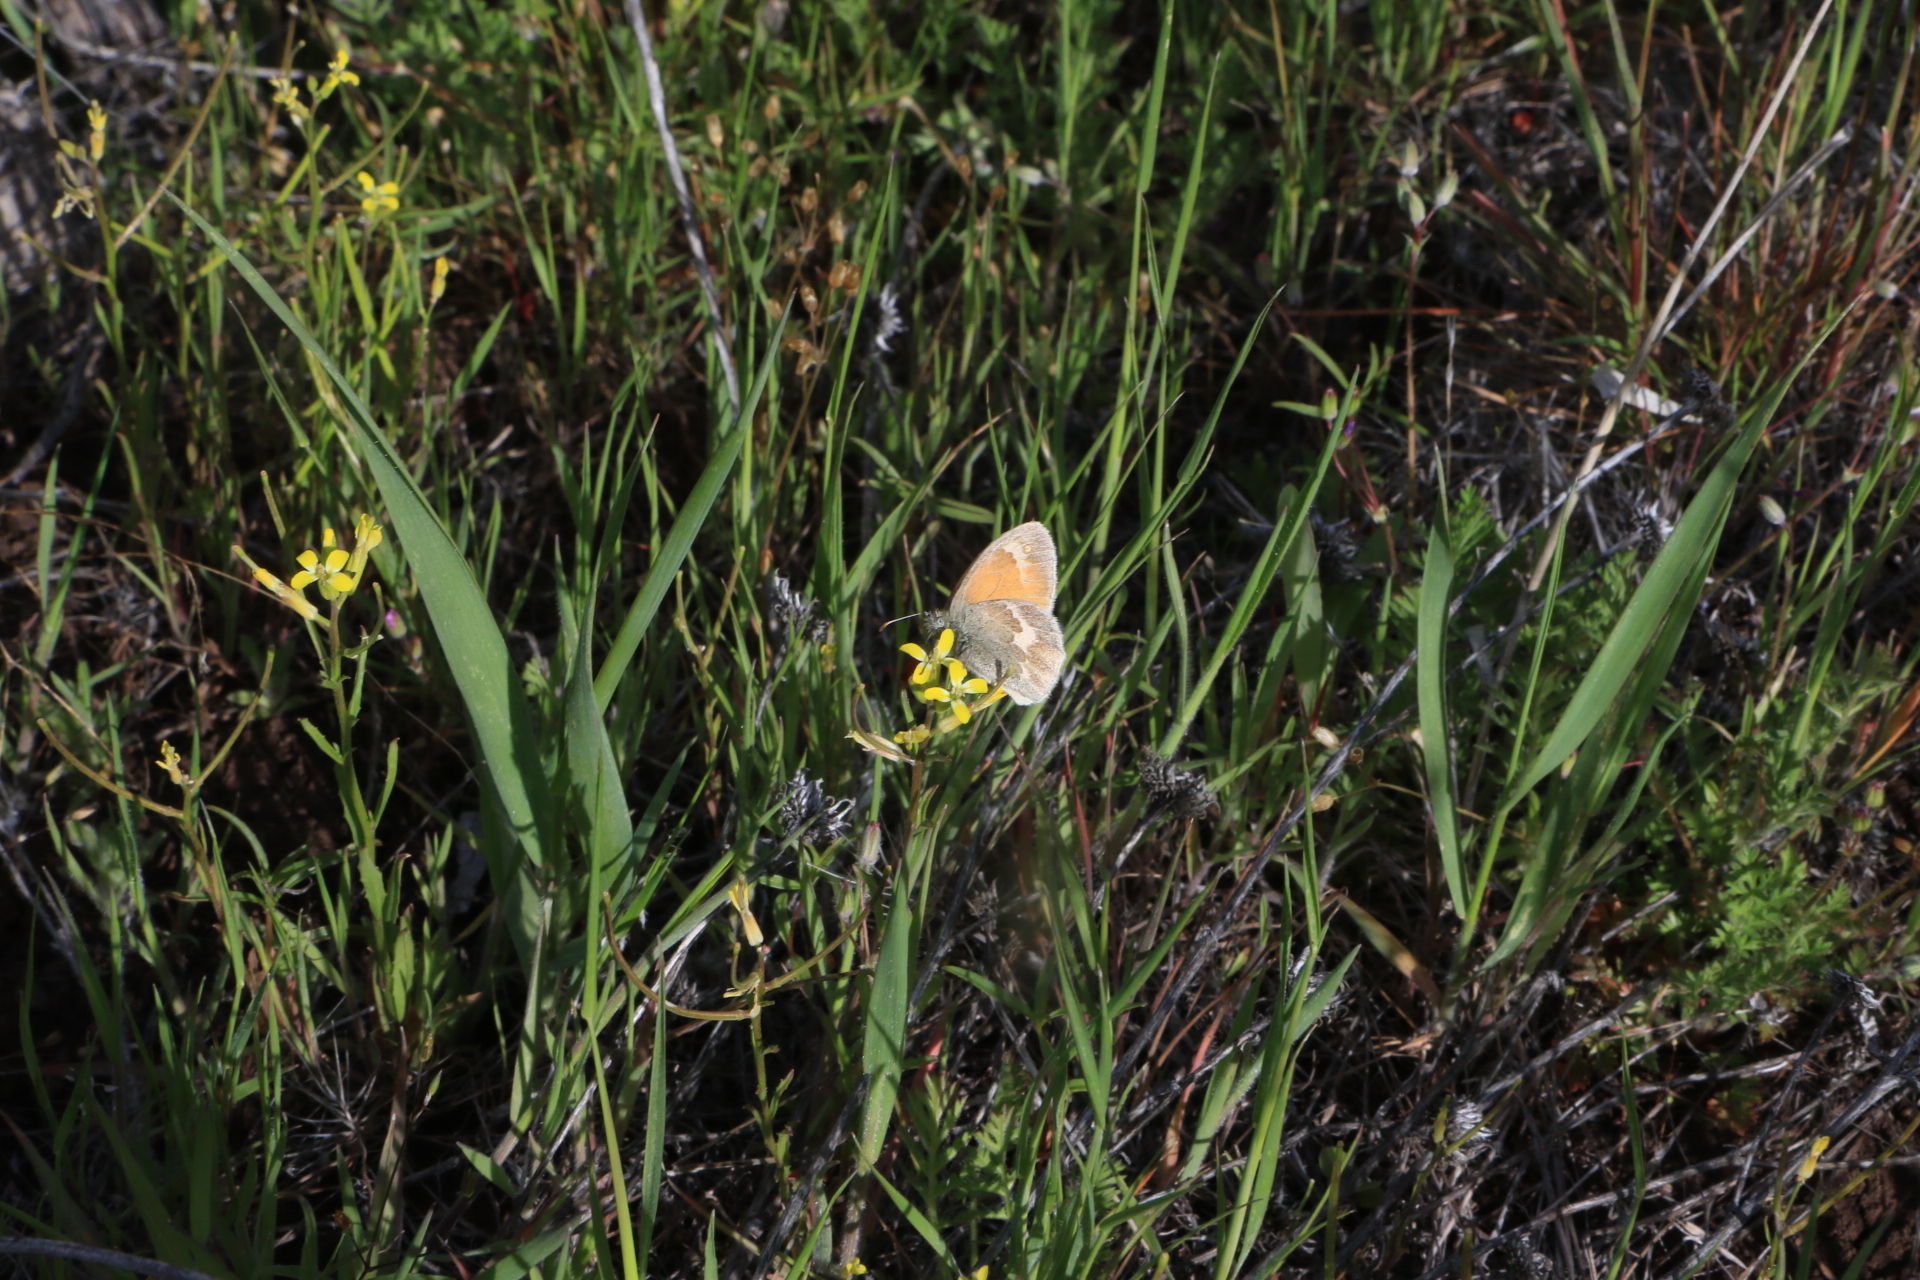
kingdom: Animalia
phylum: Arthropoda
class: Insecta
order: Lepidoptera
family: Nymphalidae
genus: Coenonympha
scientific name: Coenonympha california
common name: Common ringlet
